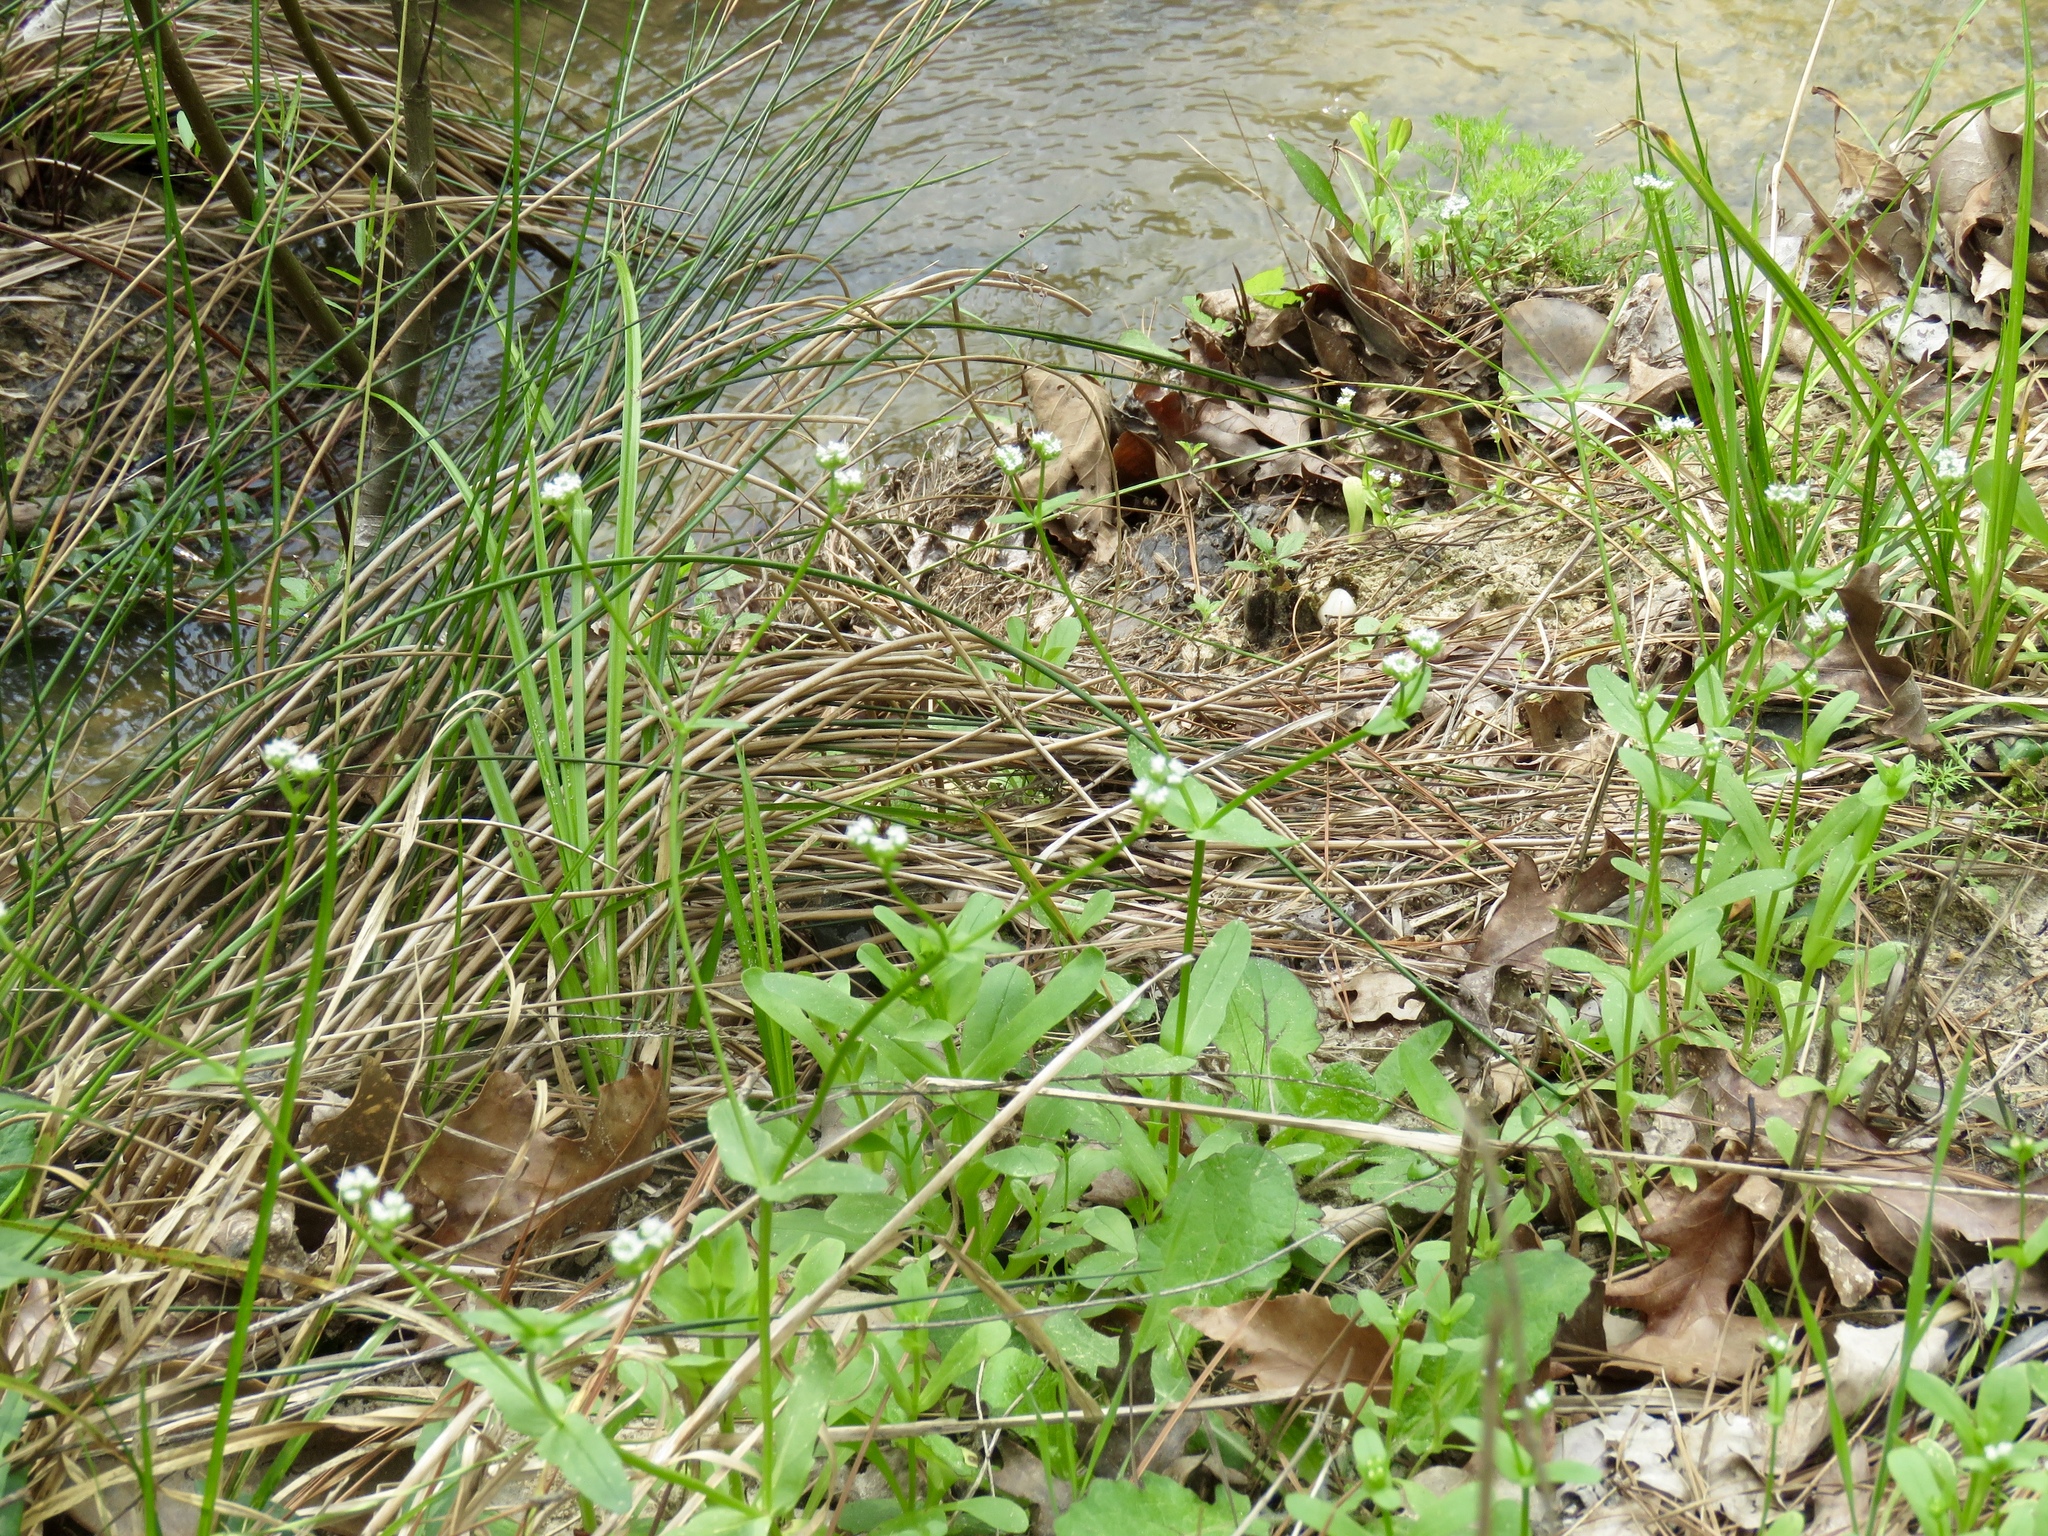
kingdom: Plantae
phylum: Tracheophyta
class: Magnoliopsida
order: Dipsacales
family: Caprifoliaceae
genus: Valerianella
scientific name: Valerianella radiata
